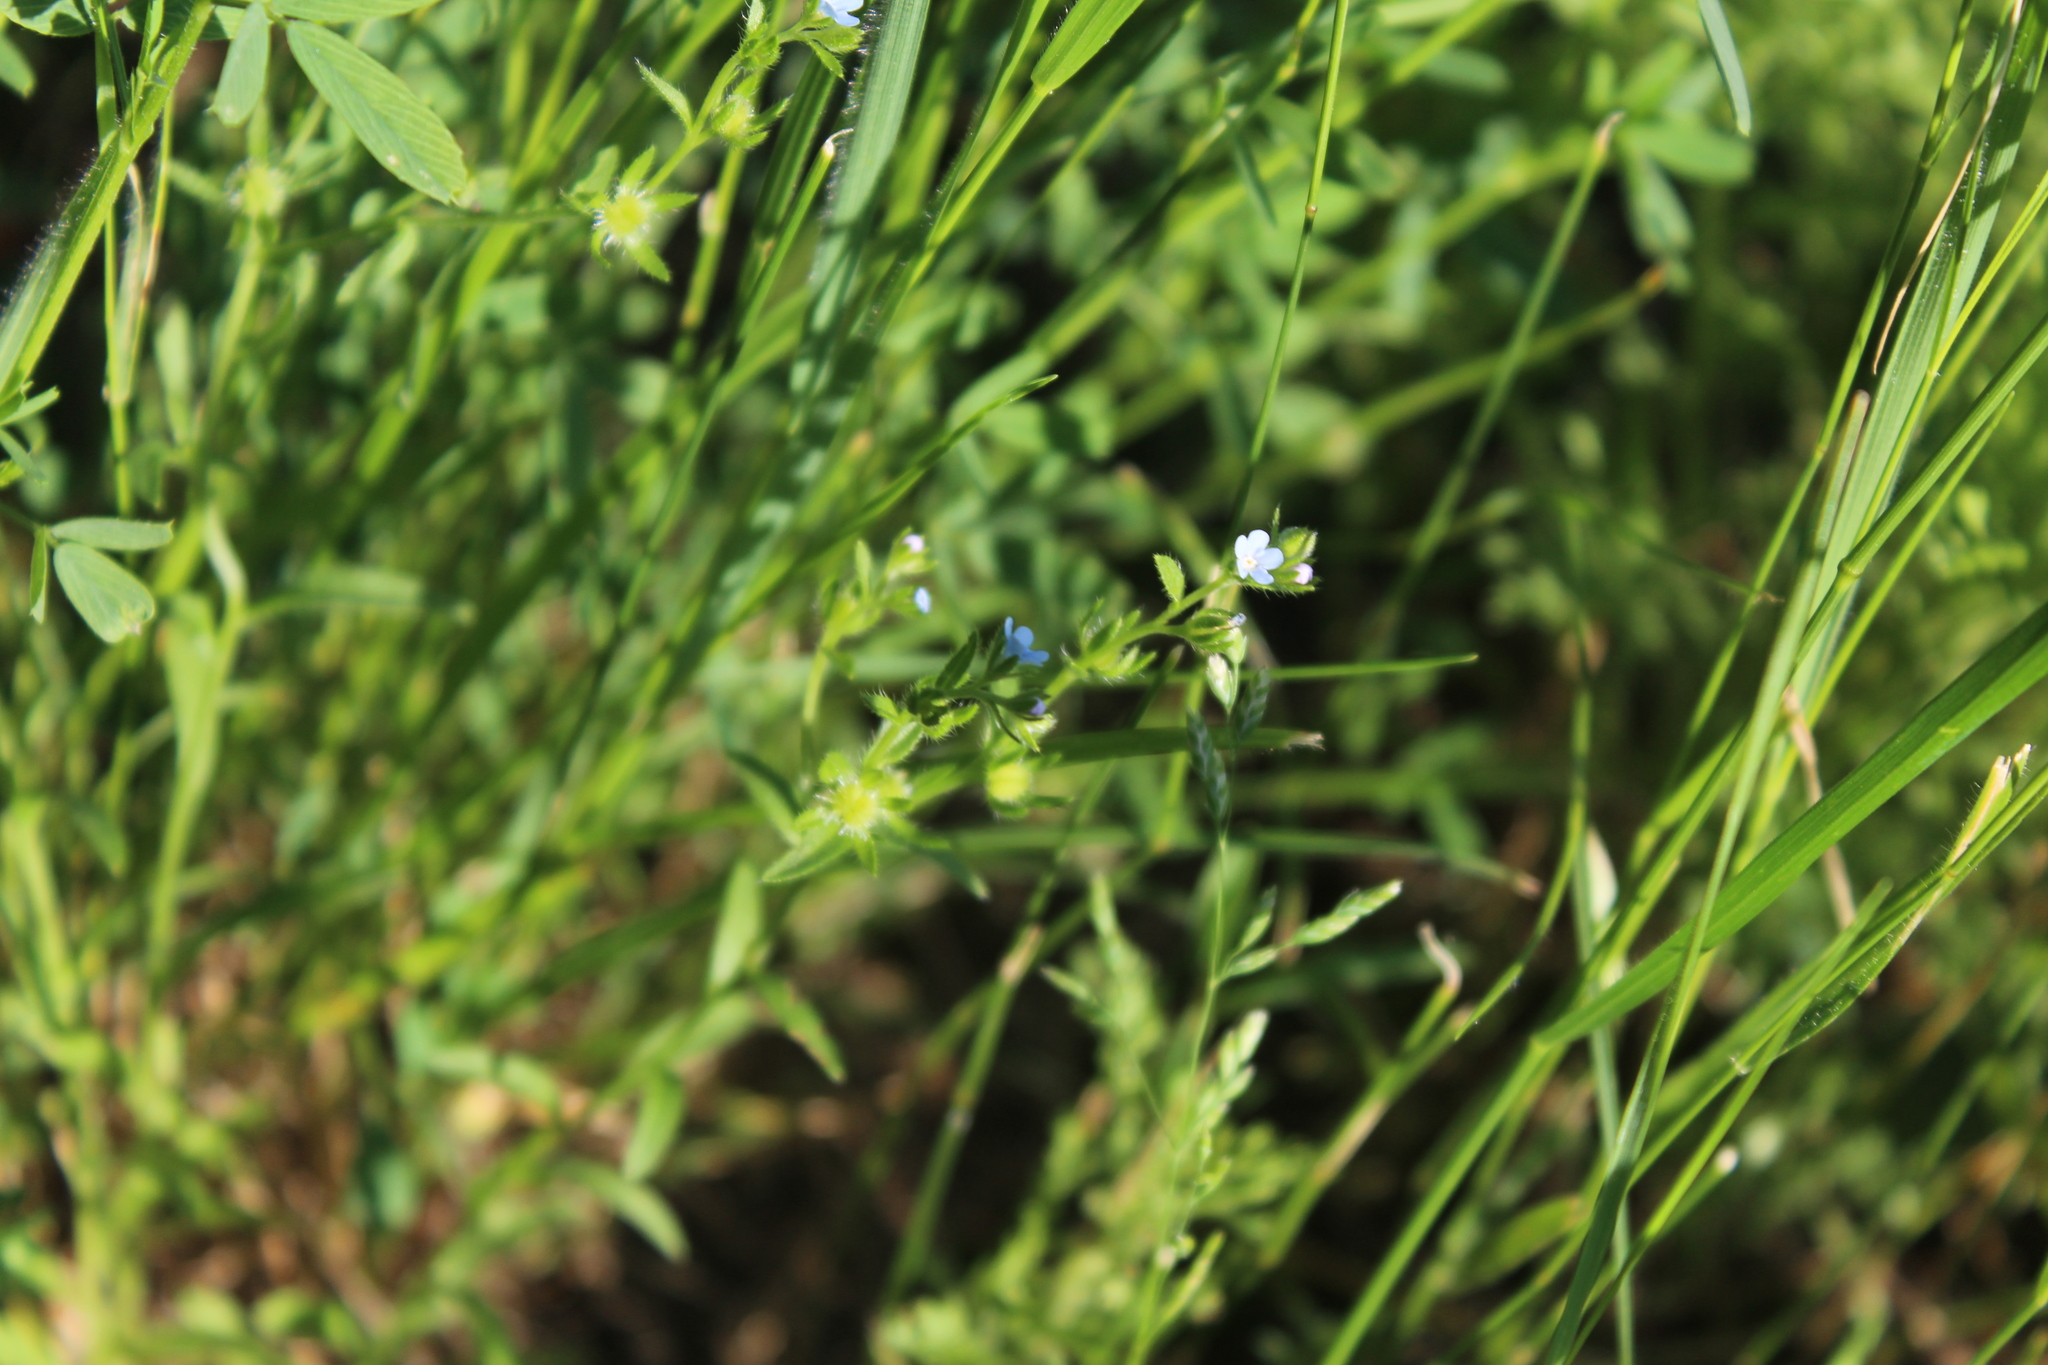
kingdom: Plantae
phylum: Tracheophyta
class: Magnoliopsida
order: Boraginales
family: Boraginaceae
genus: Lappula
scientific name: Lappula squarrosa
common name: European stickseed
